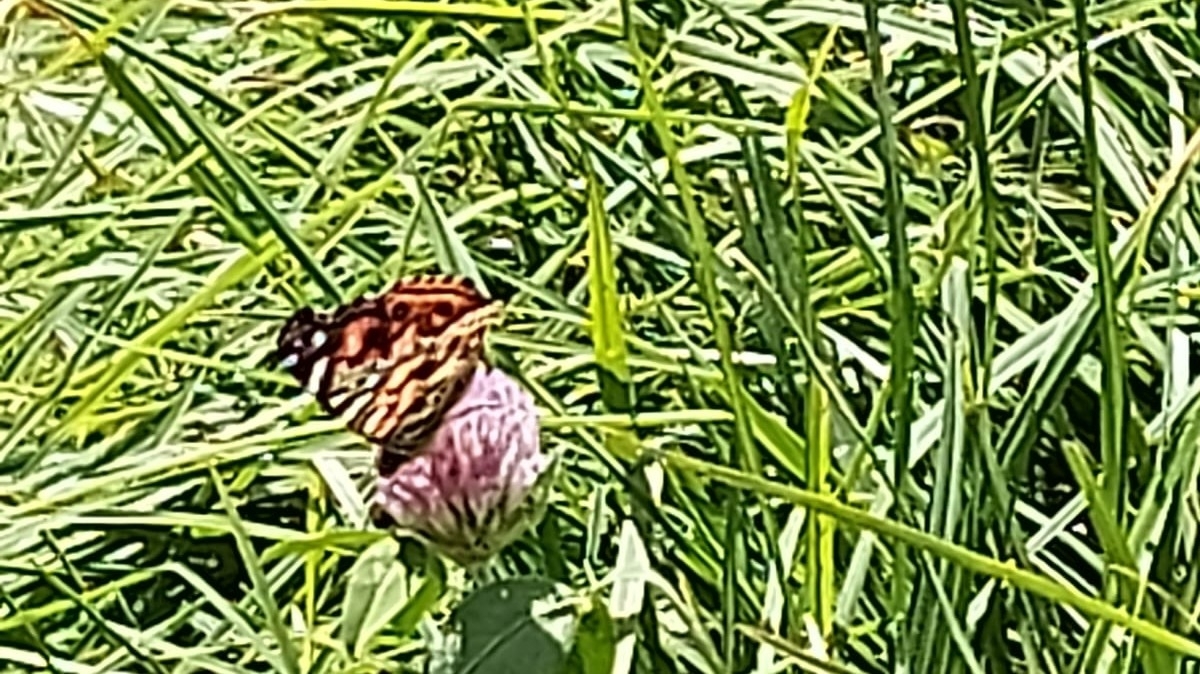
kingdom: Animalia
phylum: Arthropoda
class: Insecta
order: Lepidoptera
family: Nymphalidae
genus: Vanessa
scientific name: Vanessa carye
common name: Subtropical lady
